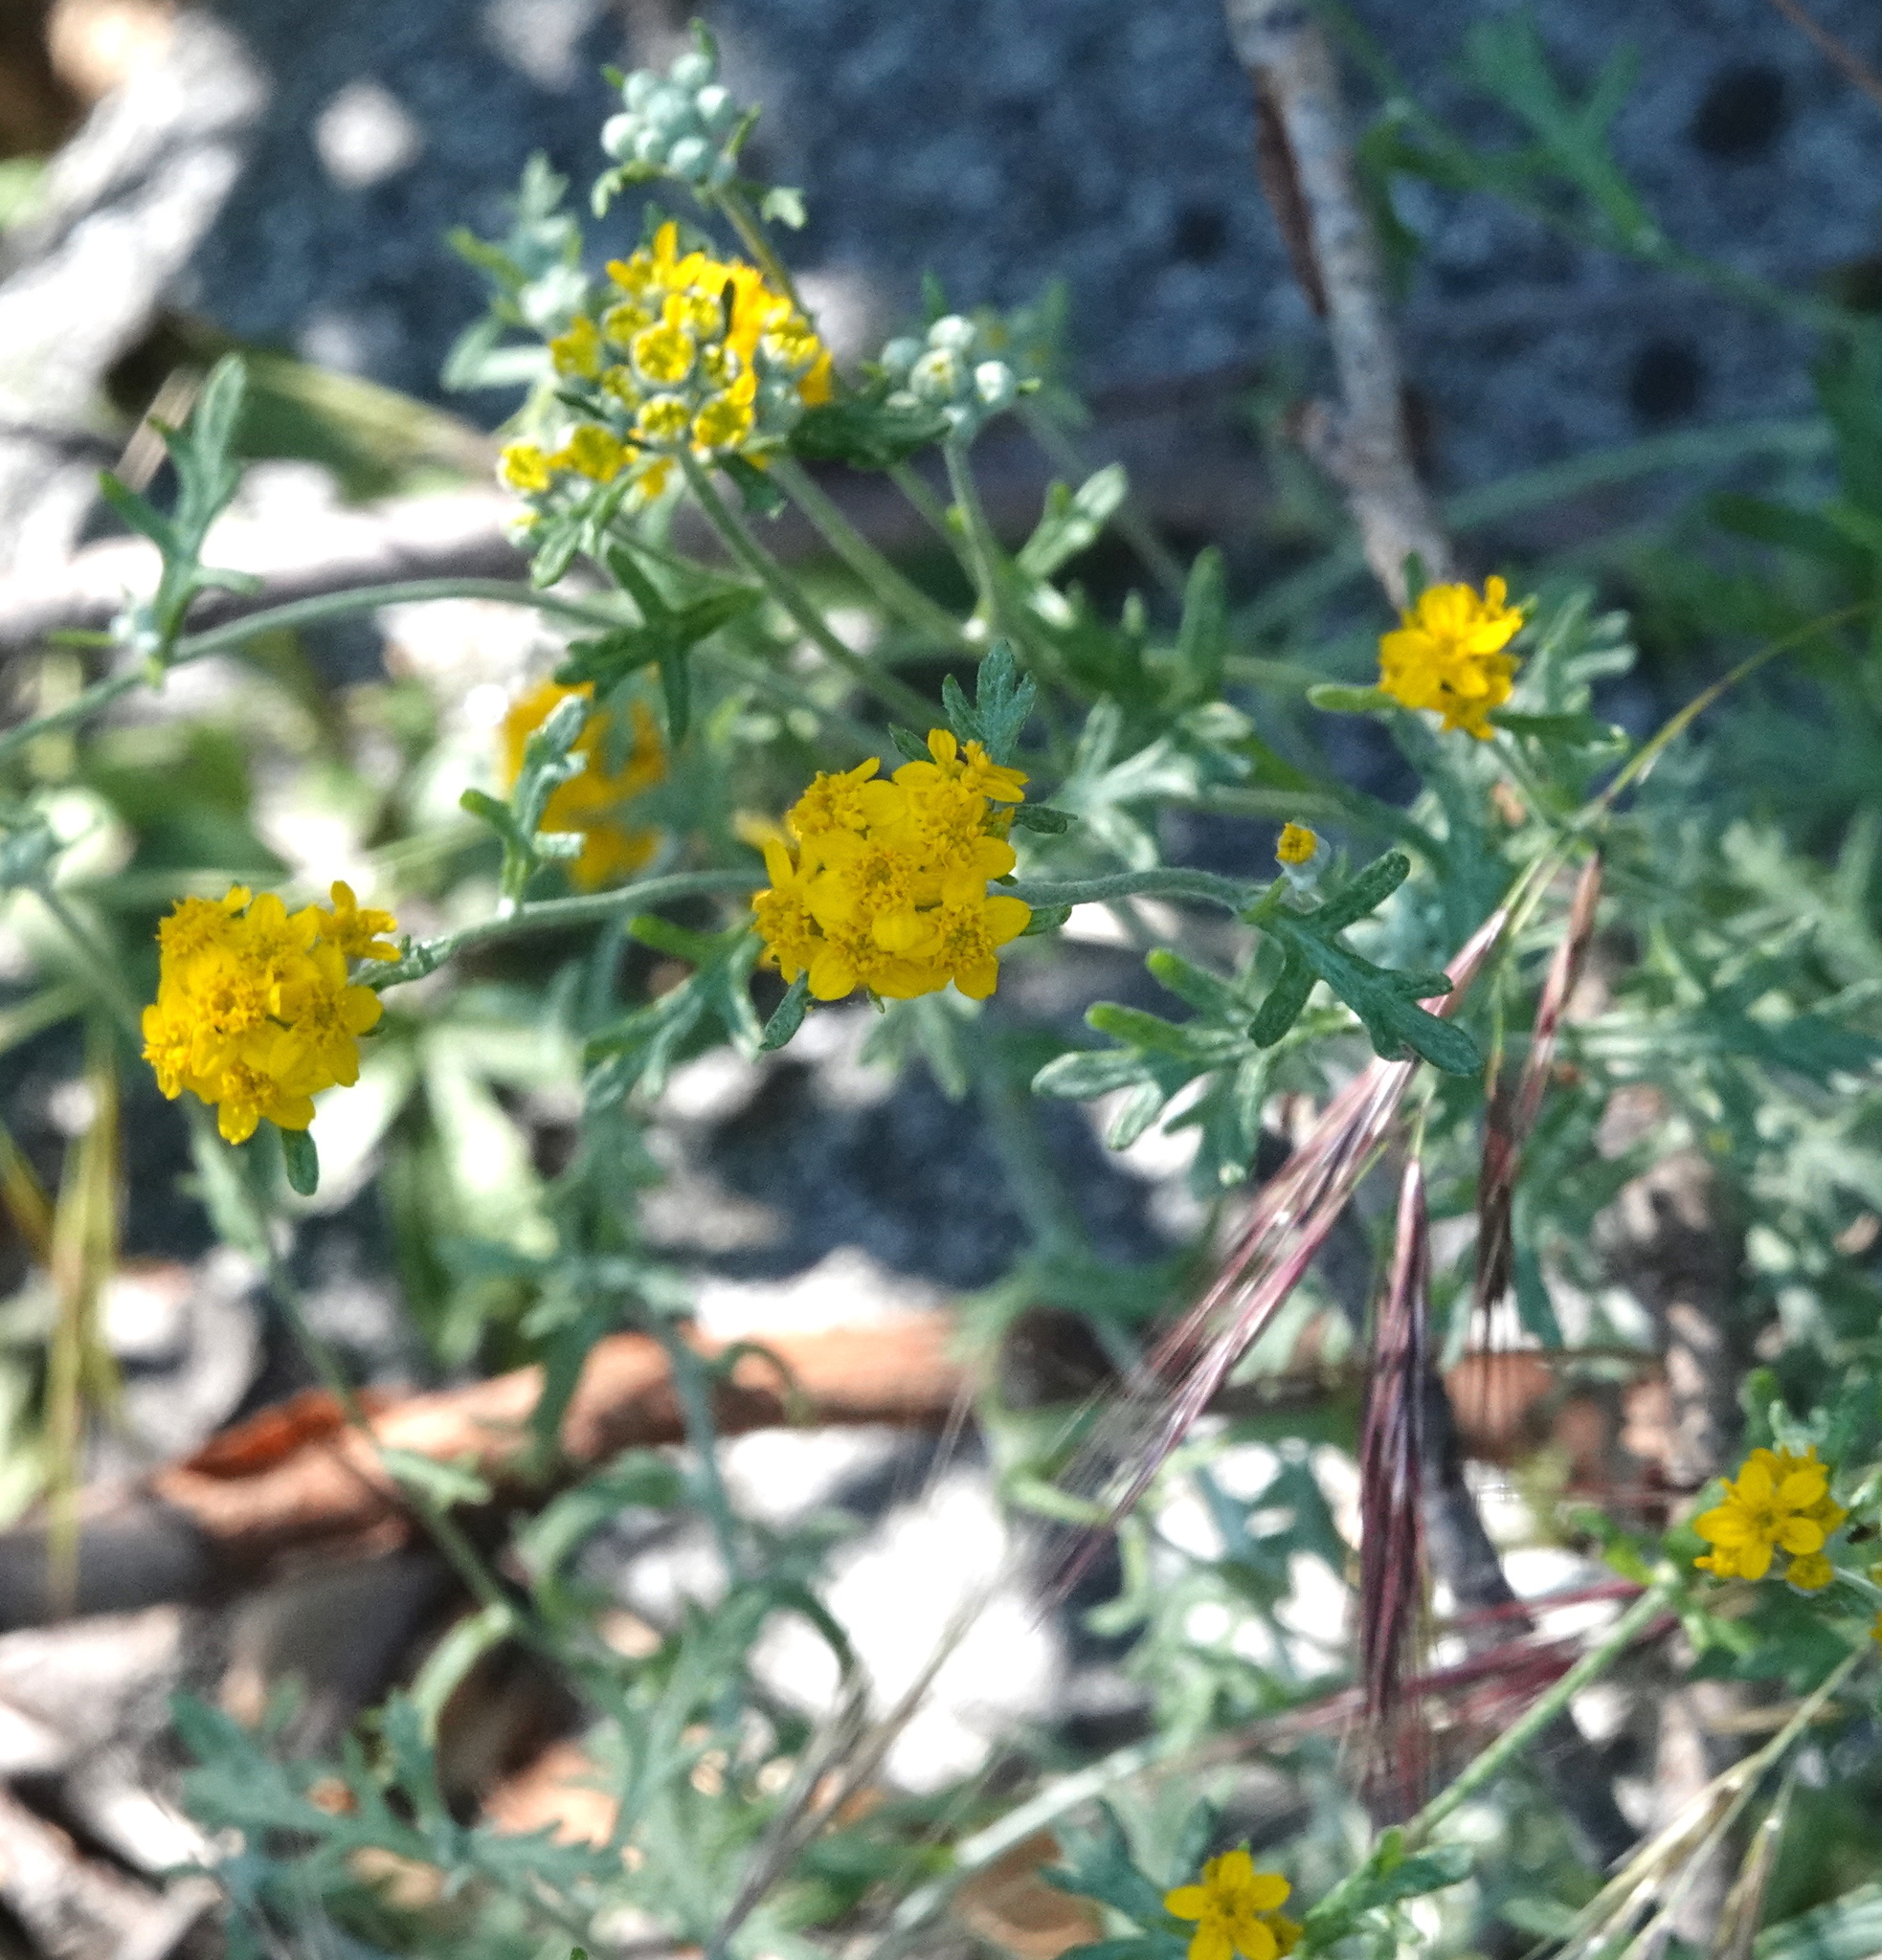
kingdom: Plantae
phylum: Tracheophyta
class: Magnoliopsida
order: Asterales
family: Asteraceae
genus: Eriophyllum
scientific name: Eriophyllum confertiflorum
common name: Golden-yarrow
